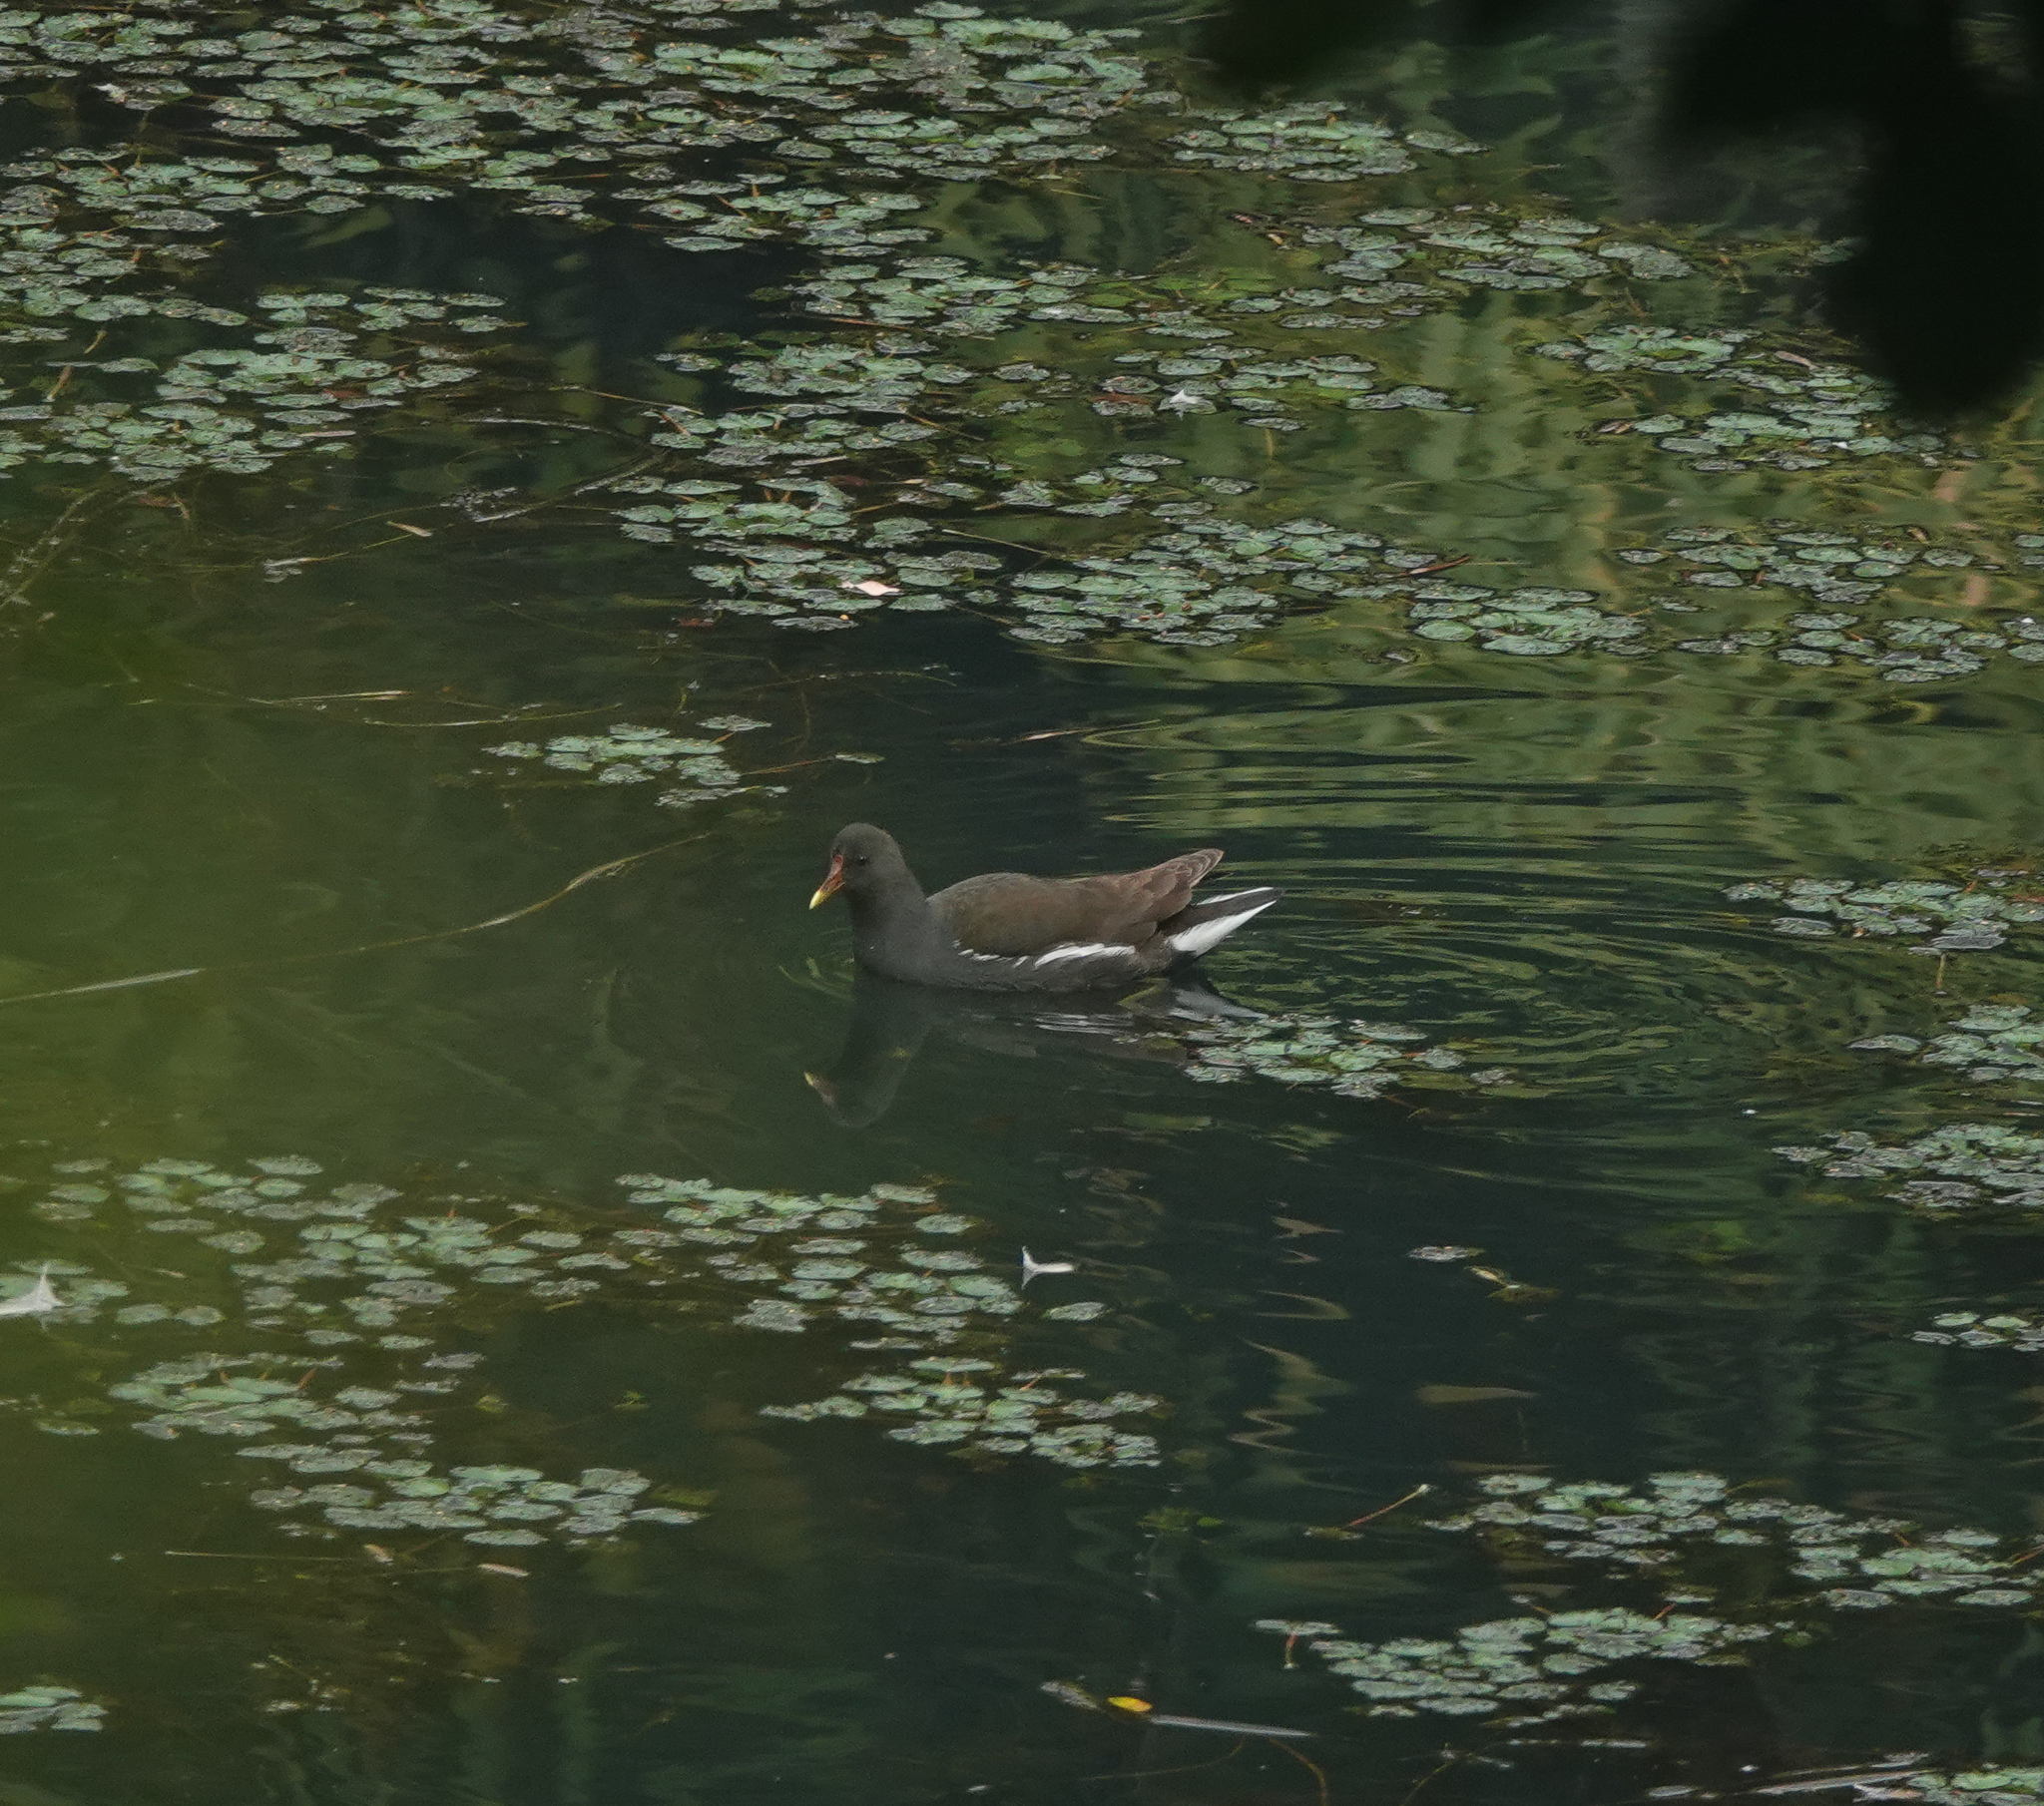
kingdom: Animalia
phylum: Chordata
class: Aves
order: Gruiformes
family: Rallidae
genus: Gallinula
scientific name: Gallinula chloropus
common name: Common moorhen
